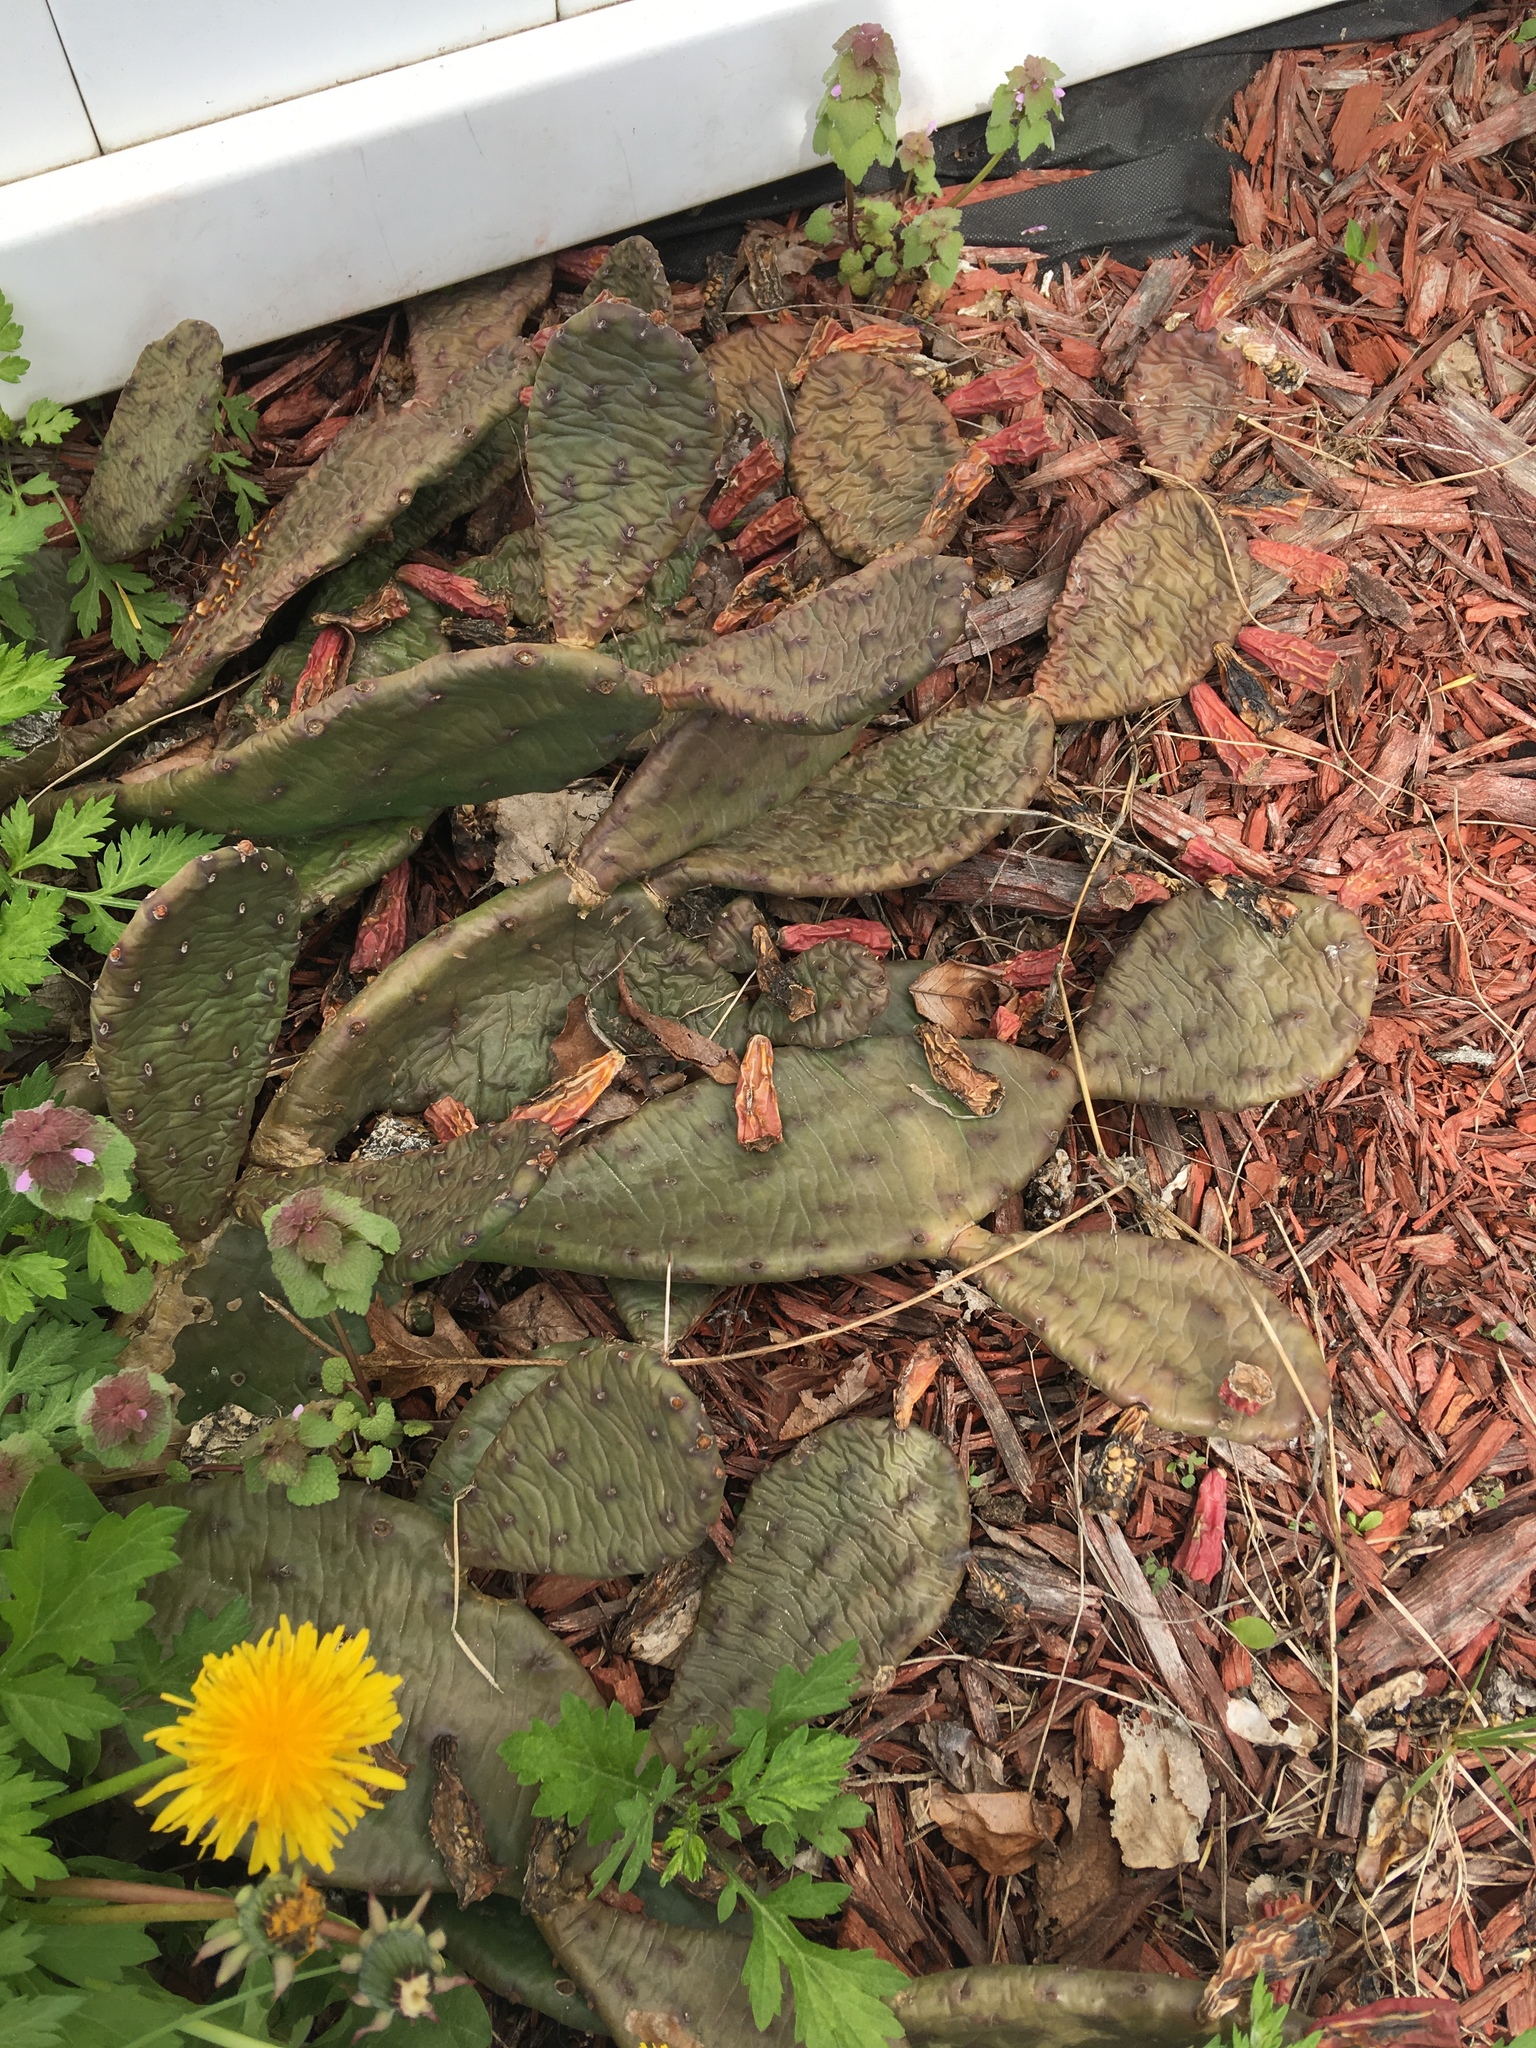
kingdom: Plantae
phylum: Tracheophyta
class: Magnoliopsida
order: Caryophyllales
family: Cactaceae
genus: Opuntia
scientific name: Opuntia humifusa
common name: Eastern prickly-pear
